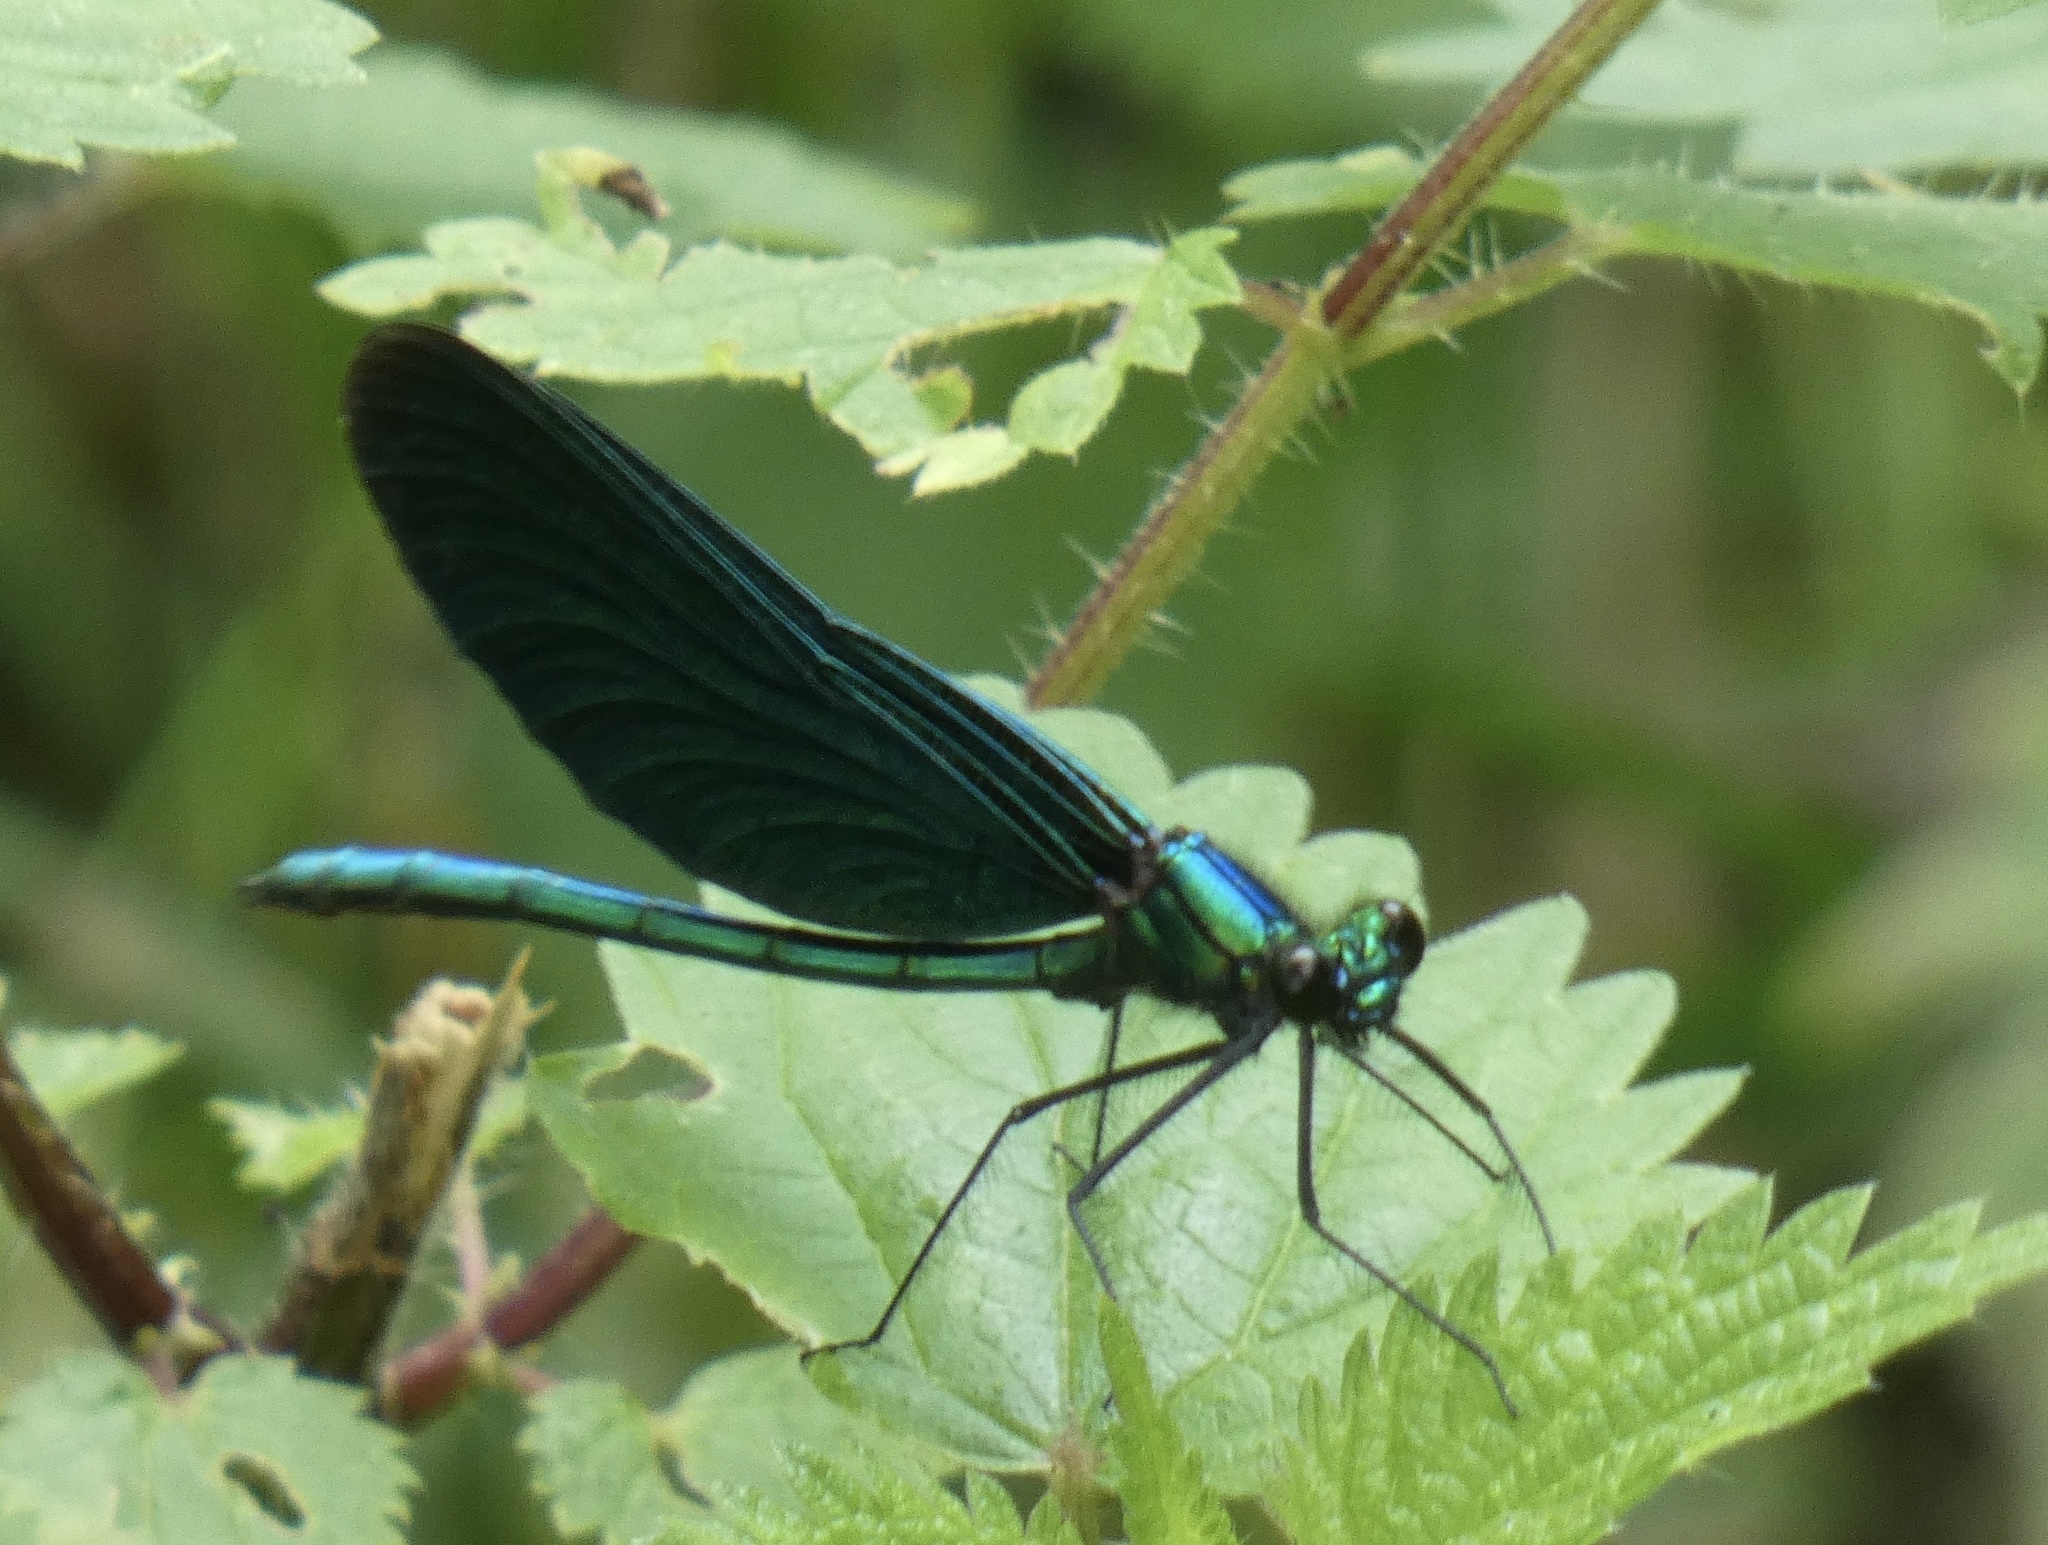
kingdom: Animalia
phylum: Arthropoda
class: Insecta
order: Odonata
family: Calopterygidae
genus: Calopteryx
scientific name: Calopteryx virgo
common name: Beautiful demoiselle
